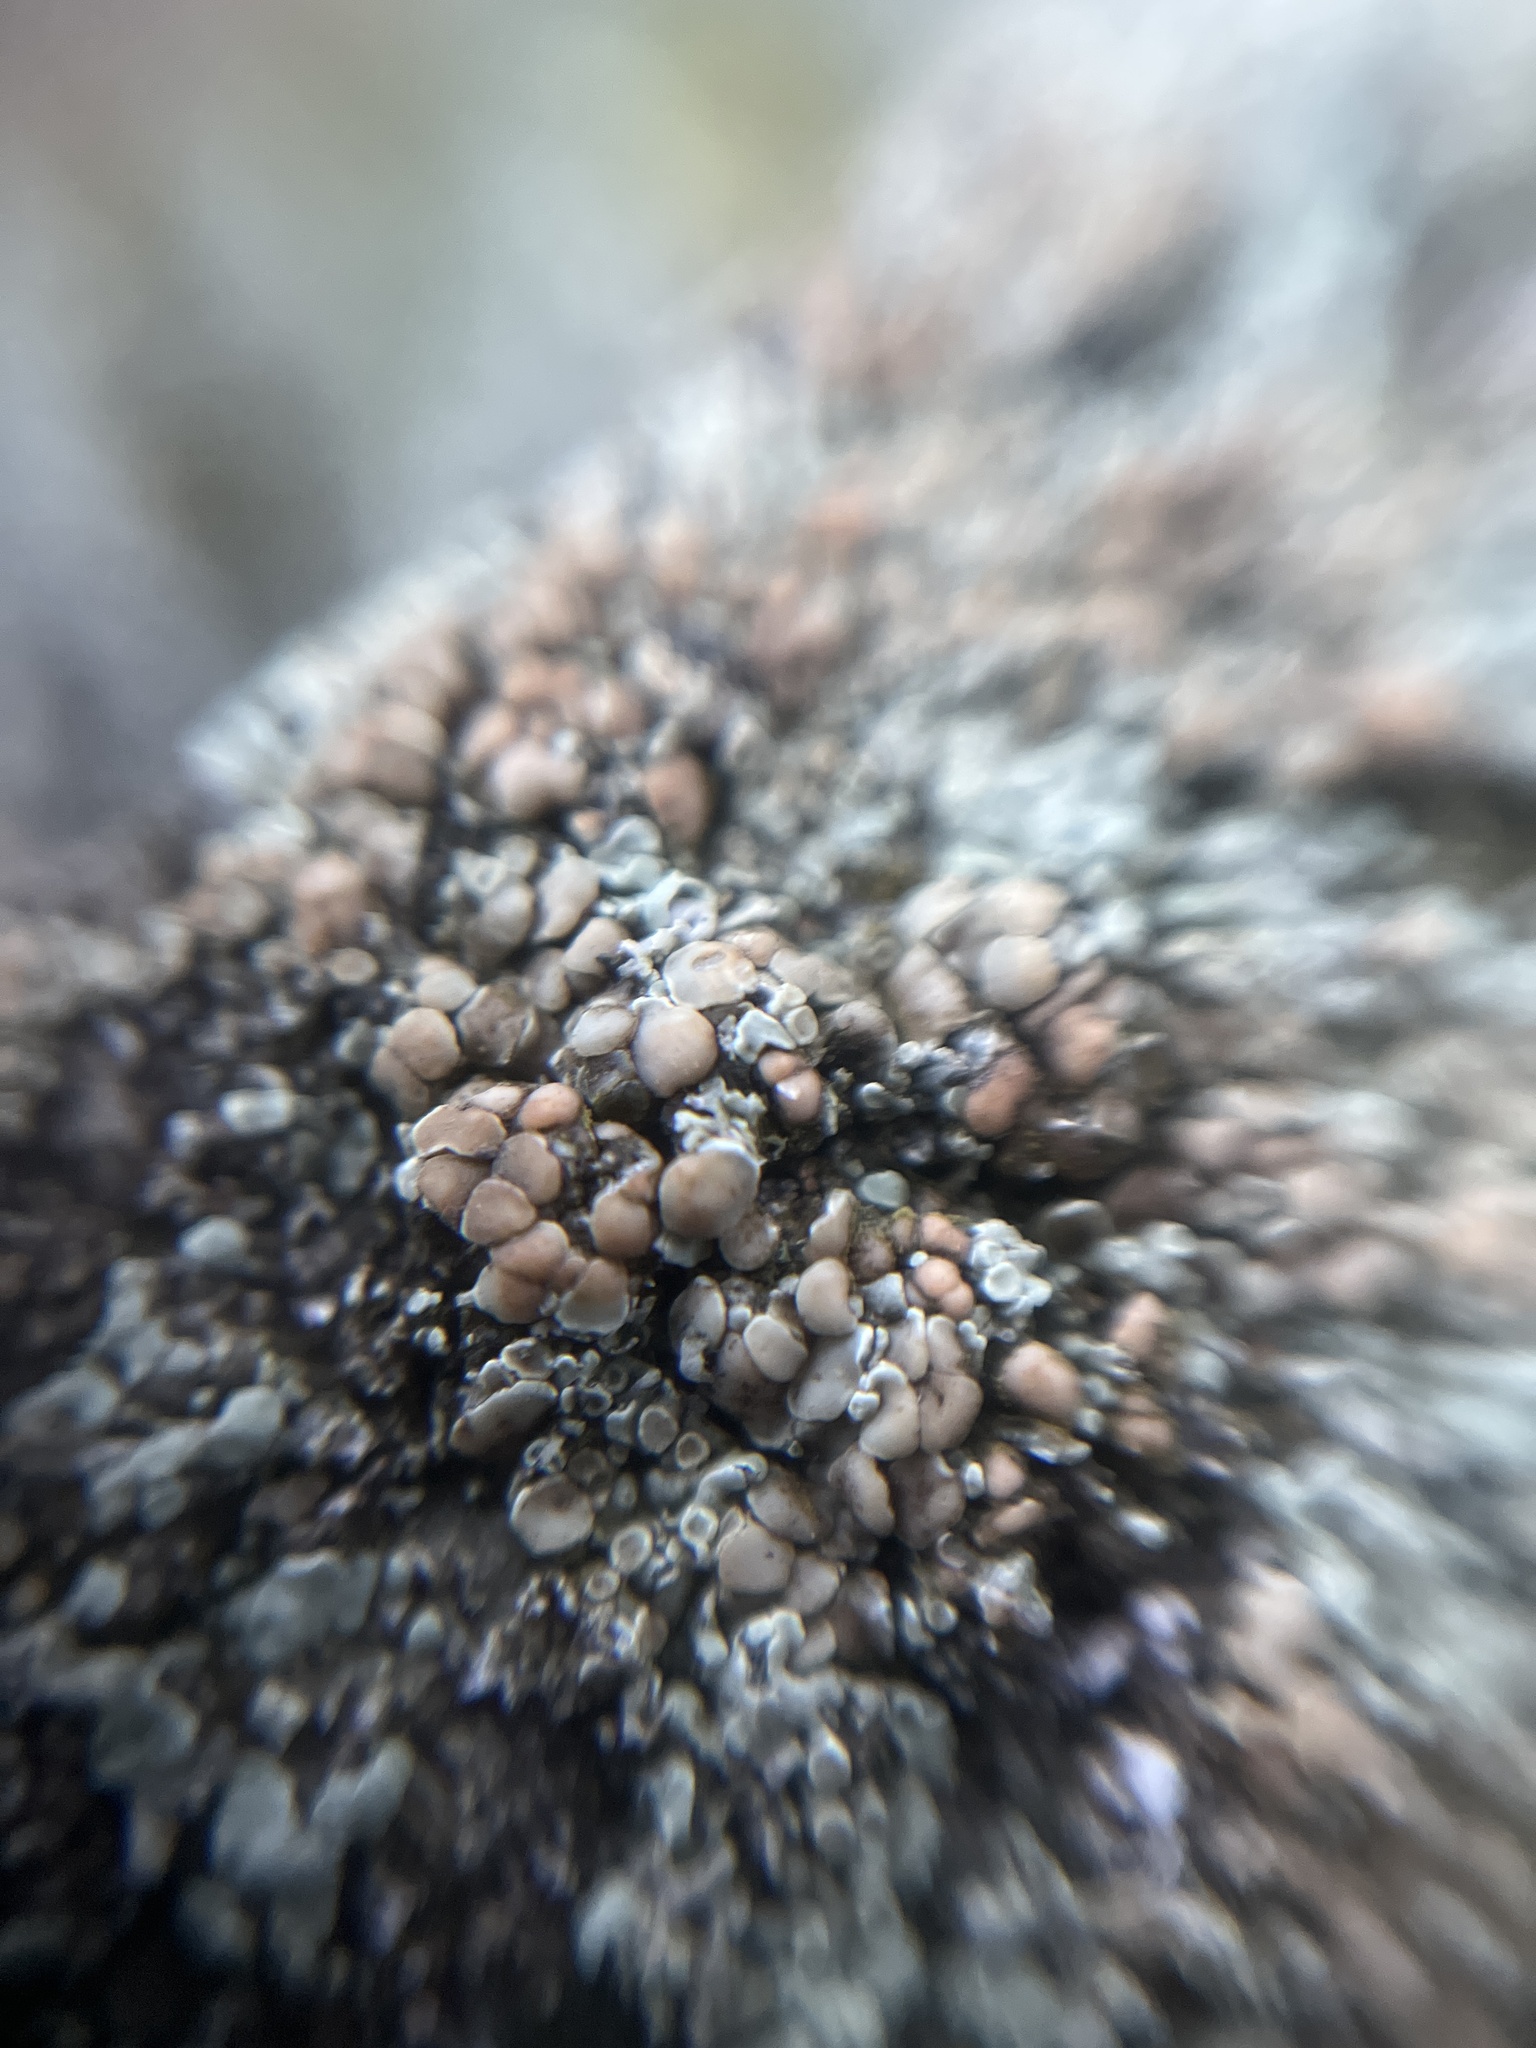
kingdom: Fungi
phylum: Ascomycota
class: Lecanoromycetes
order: Lecanorales
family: Lecanoraceae
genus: Protoparmeliopsis
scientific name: Protoparmeliopsis muralis
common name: Stonewall rim lichen
